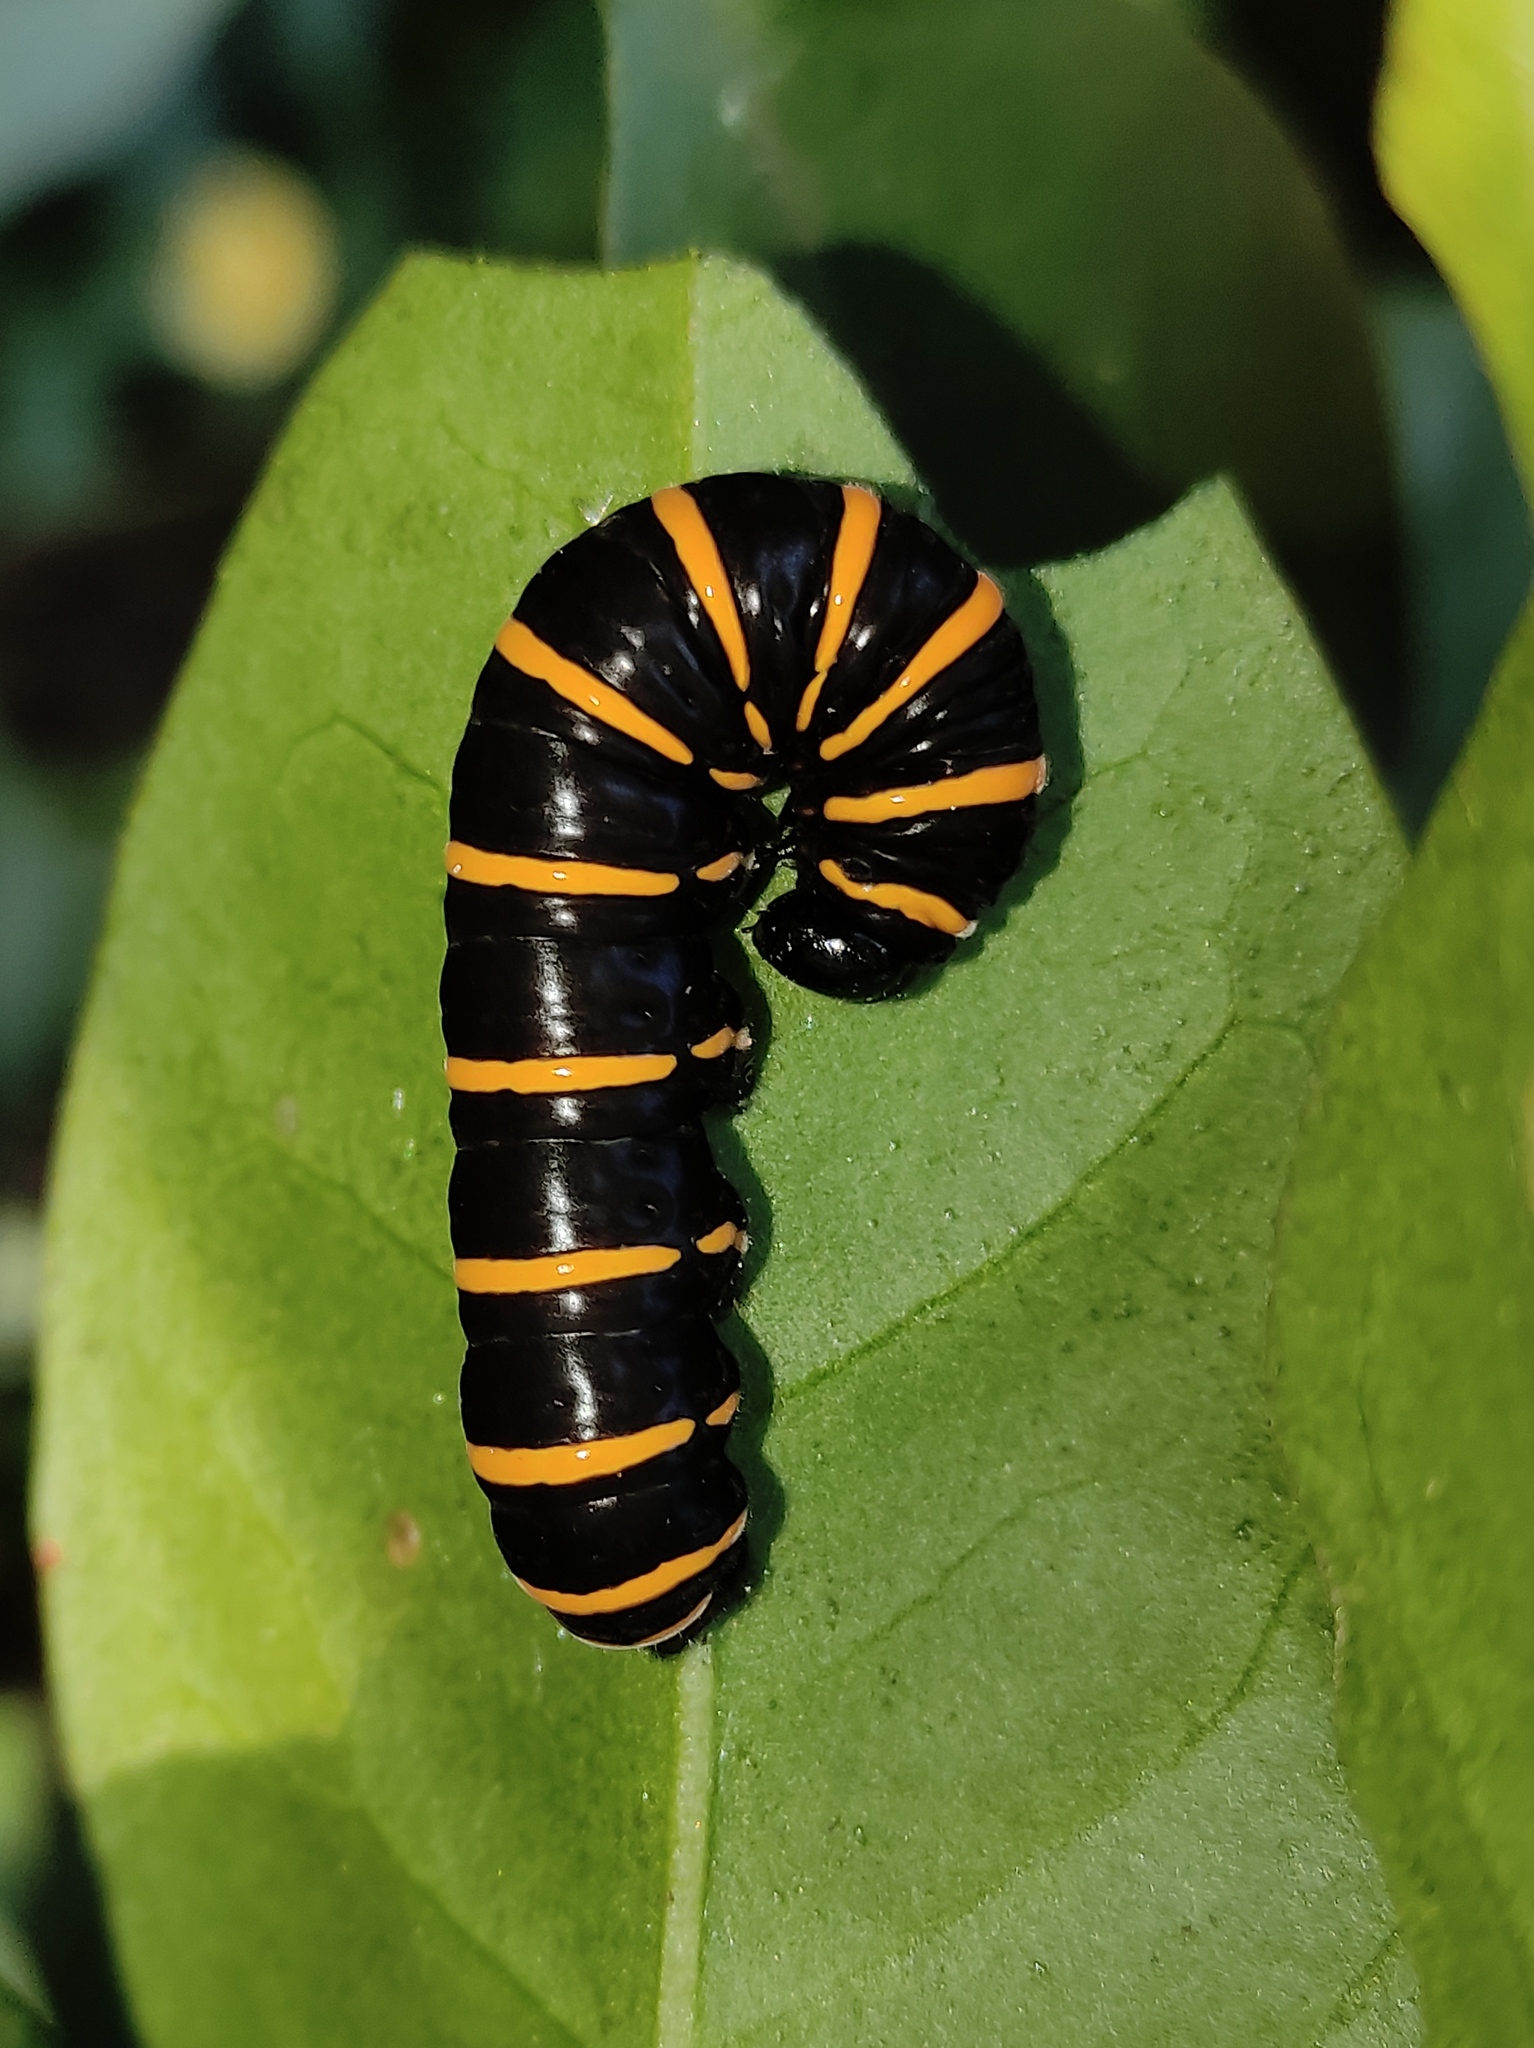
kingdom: Animalia
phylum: Arthropoda
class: Insecta
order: Lepidoptera
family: Nymphalidae
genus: Methona
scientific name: Methona themisto
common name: Themisto amberwing
